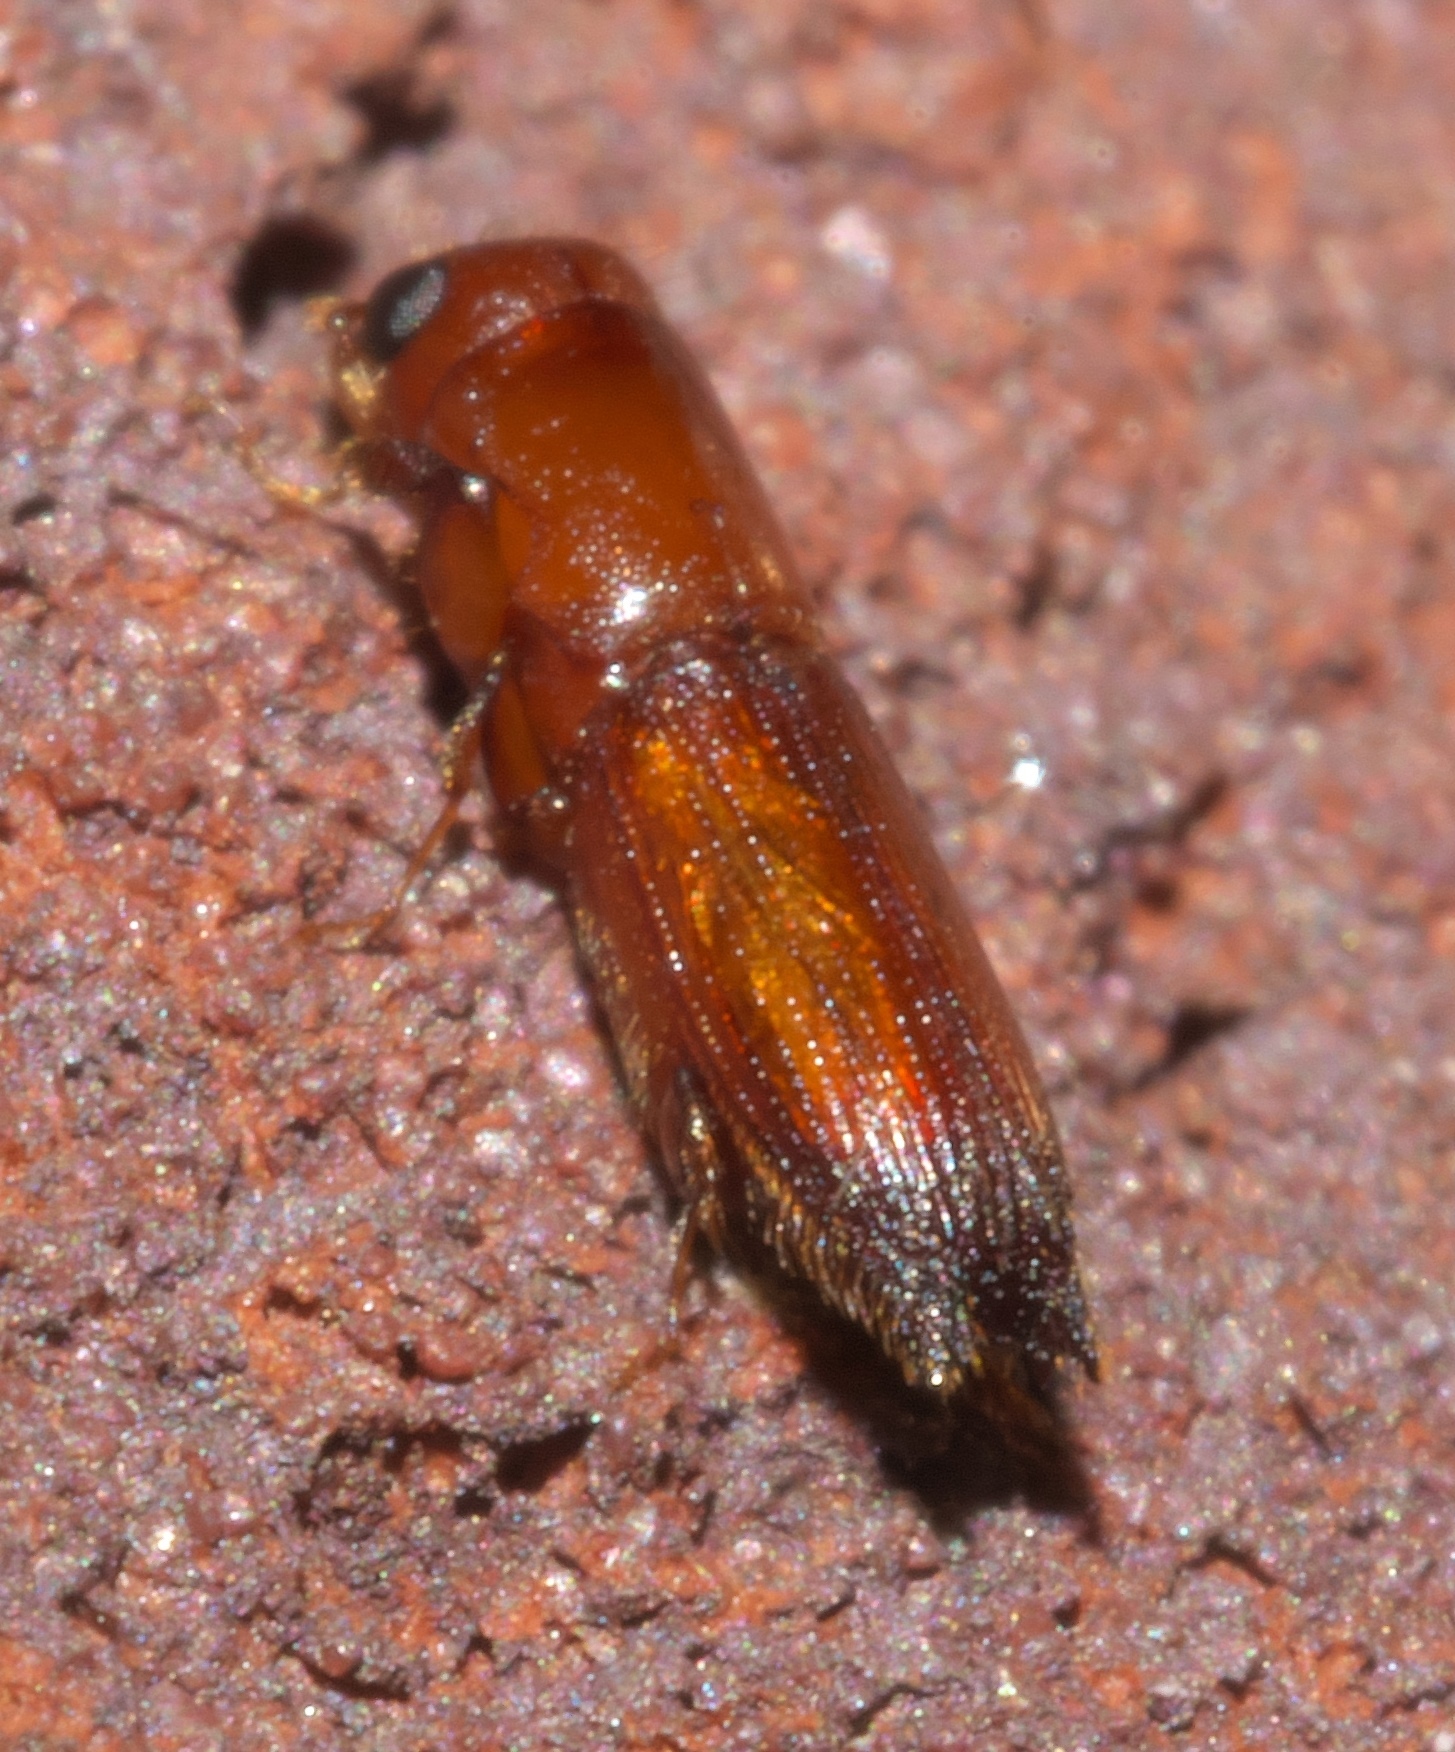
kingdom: Animalia
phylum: Arthropoda
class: Insecta
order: Coleoptera
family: Curculionidae
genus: Euplatypus
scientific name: Euplatypus compositus
